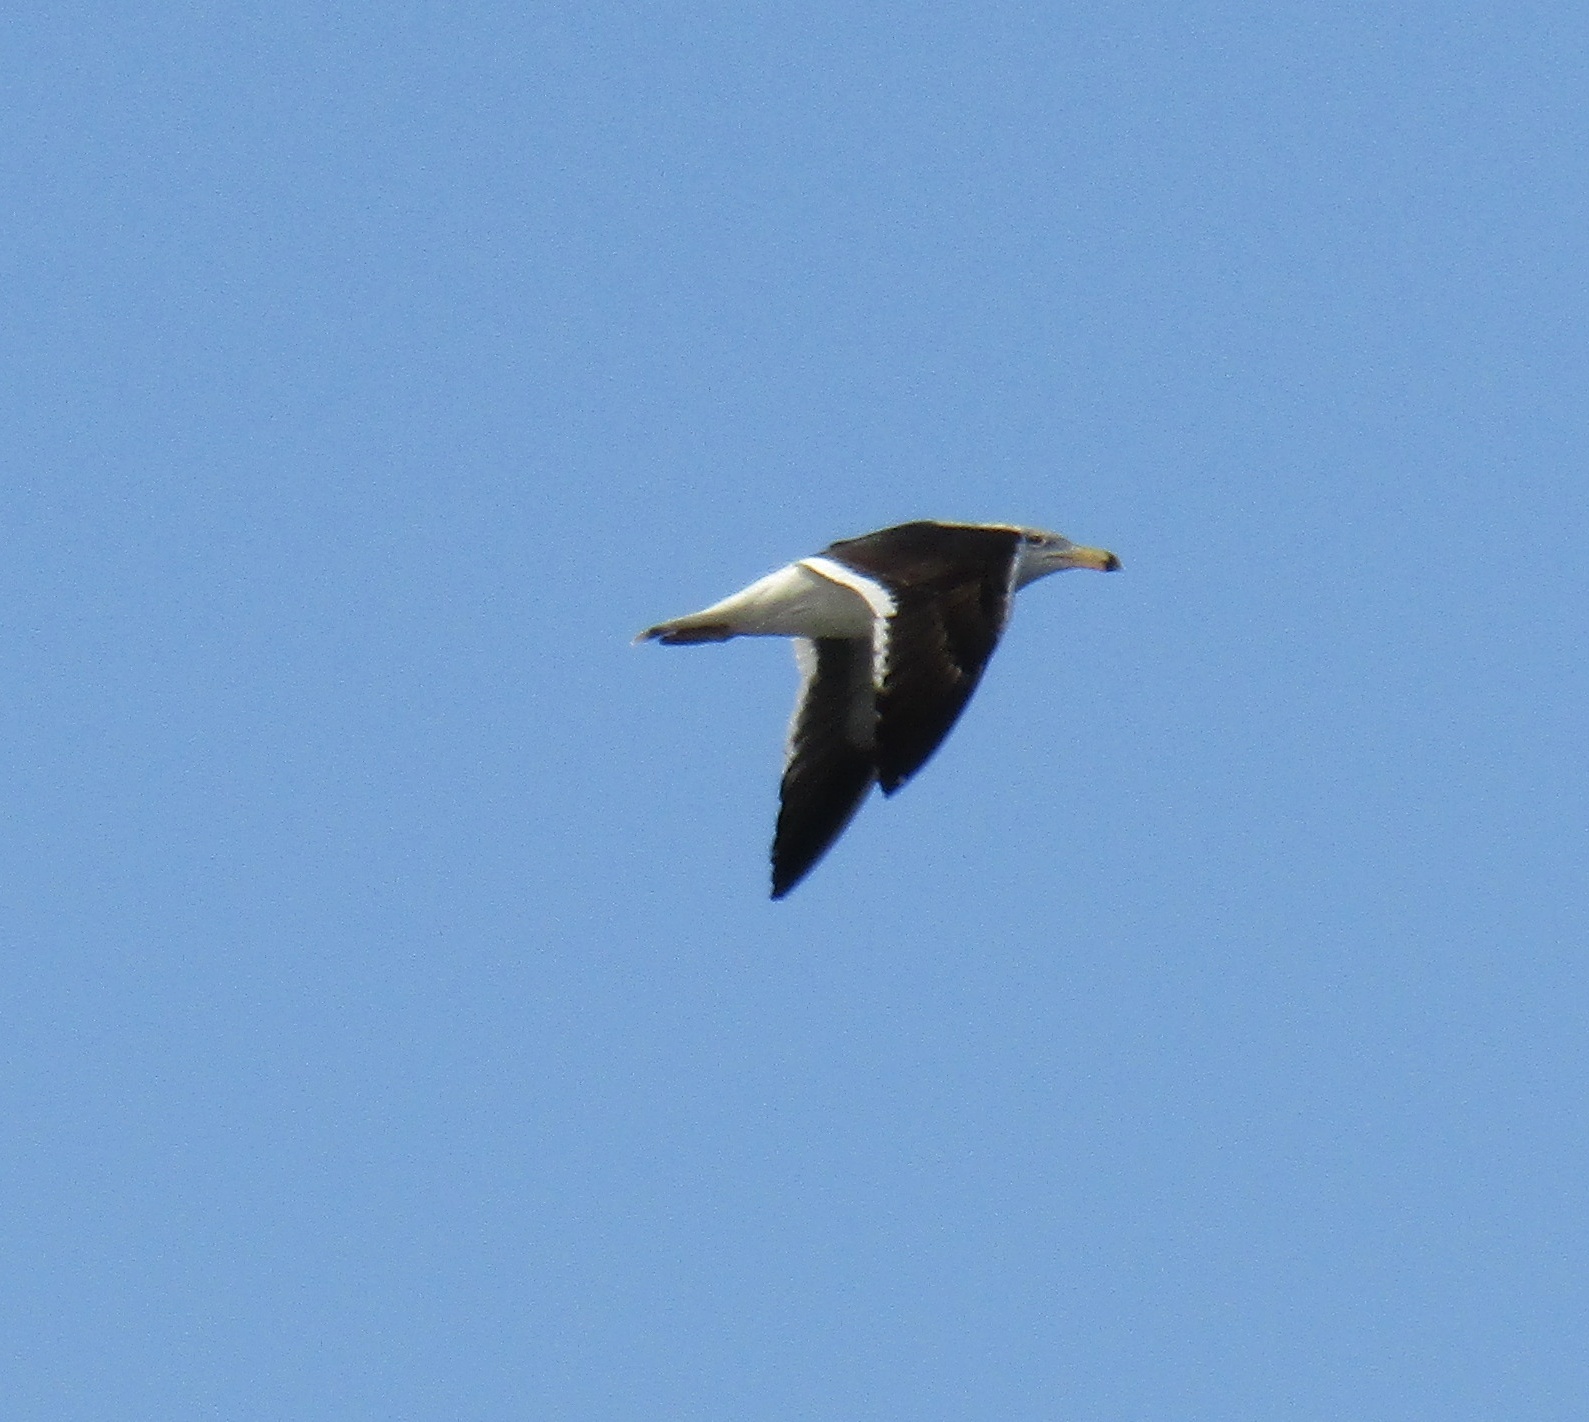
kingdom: Animalia
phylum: Chordata
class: Aves
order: Charadriiformes
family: Laridae
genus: Larus
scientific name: Larus atlanticus
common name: Olrog's gull
